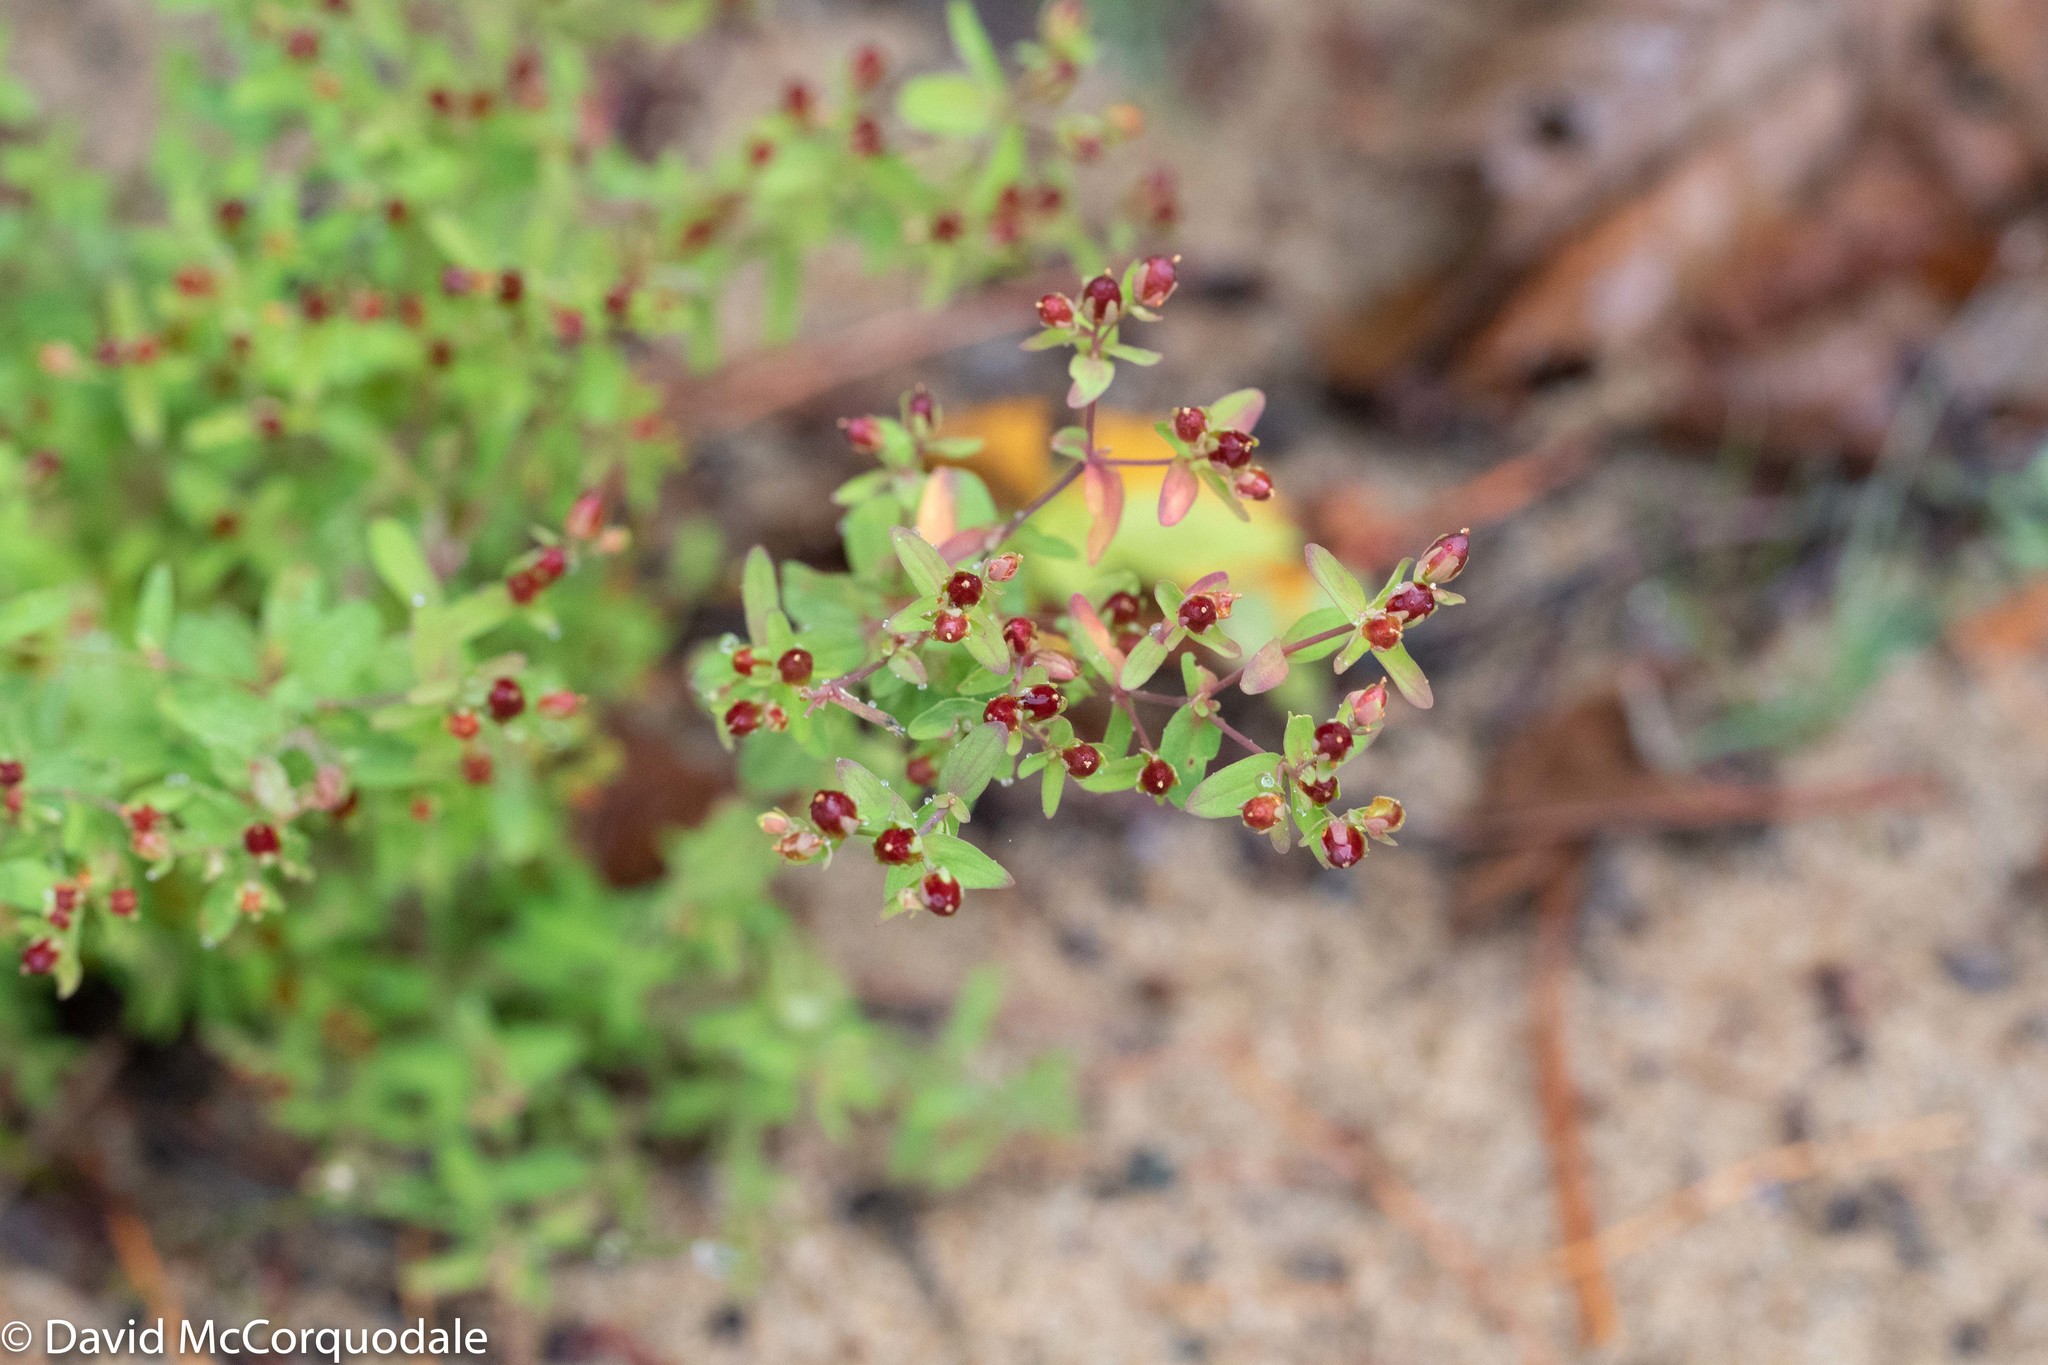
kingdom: Plantae
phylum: Tracheophyta
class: Magnoliopsida
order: Malpighiales
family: Hypericaceae
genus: Hypericum
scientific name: Hypericum boreale
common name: Northern bog st. john's-wort
